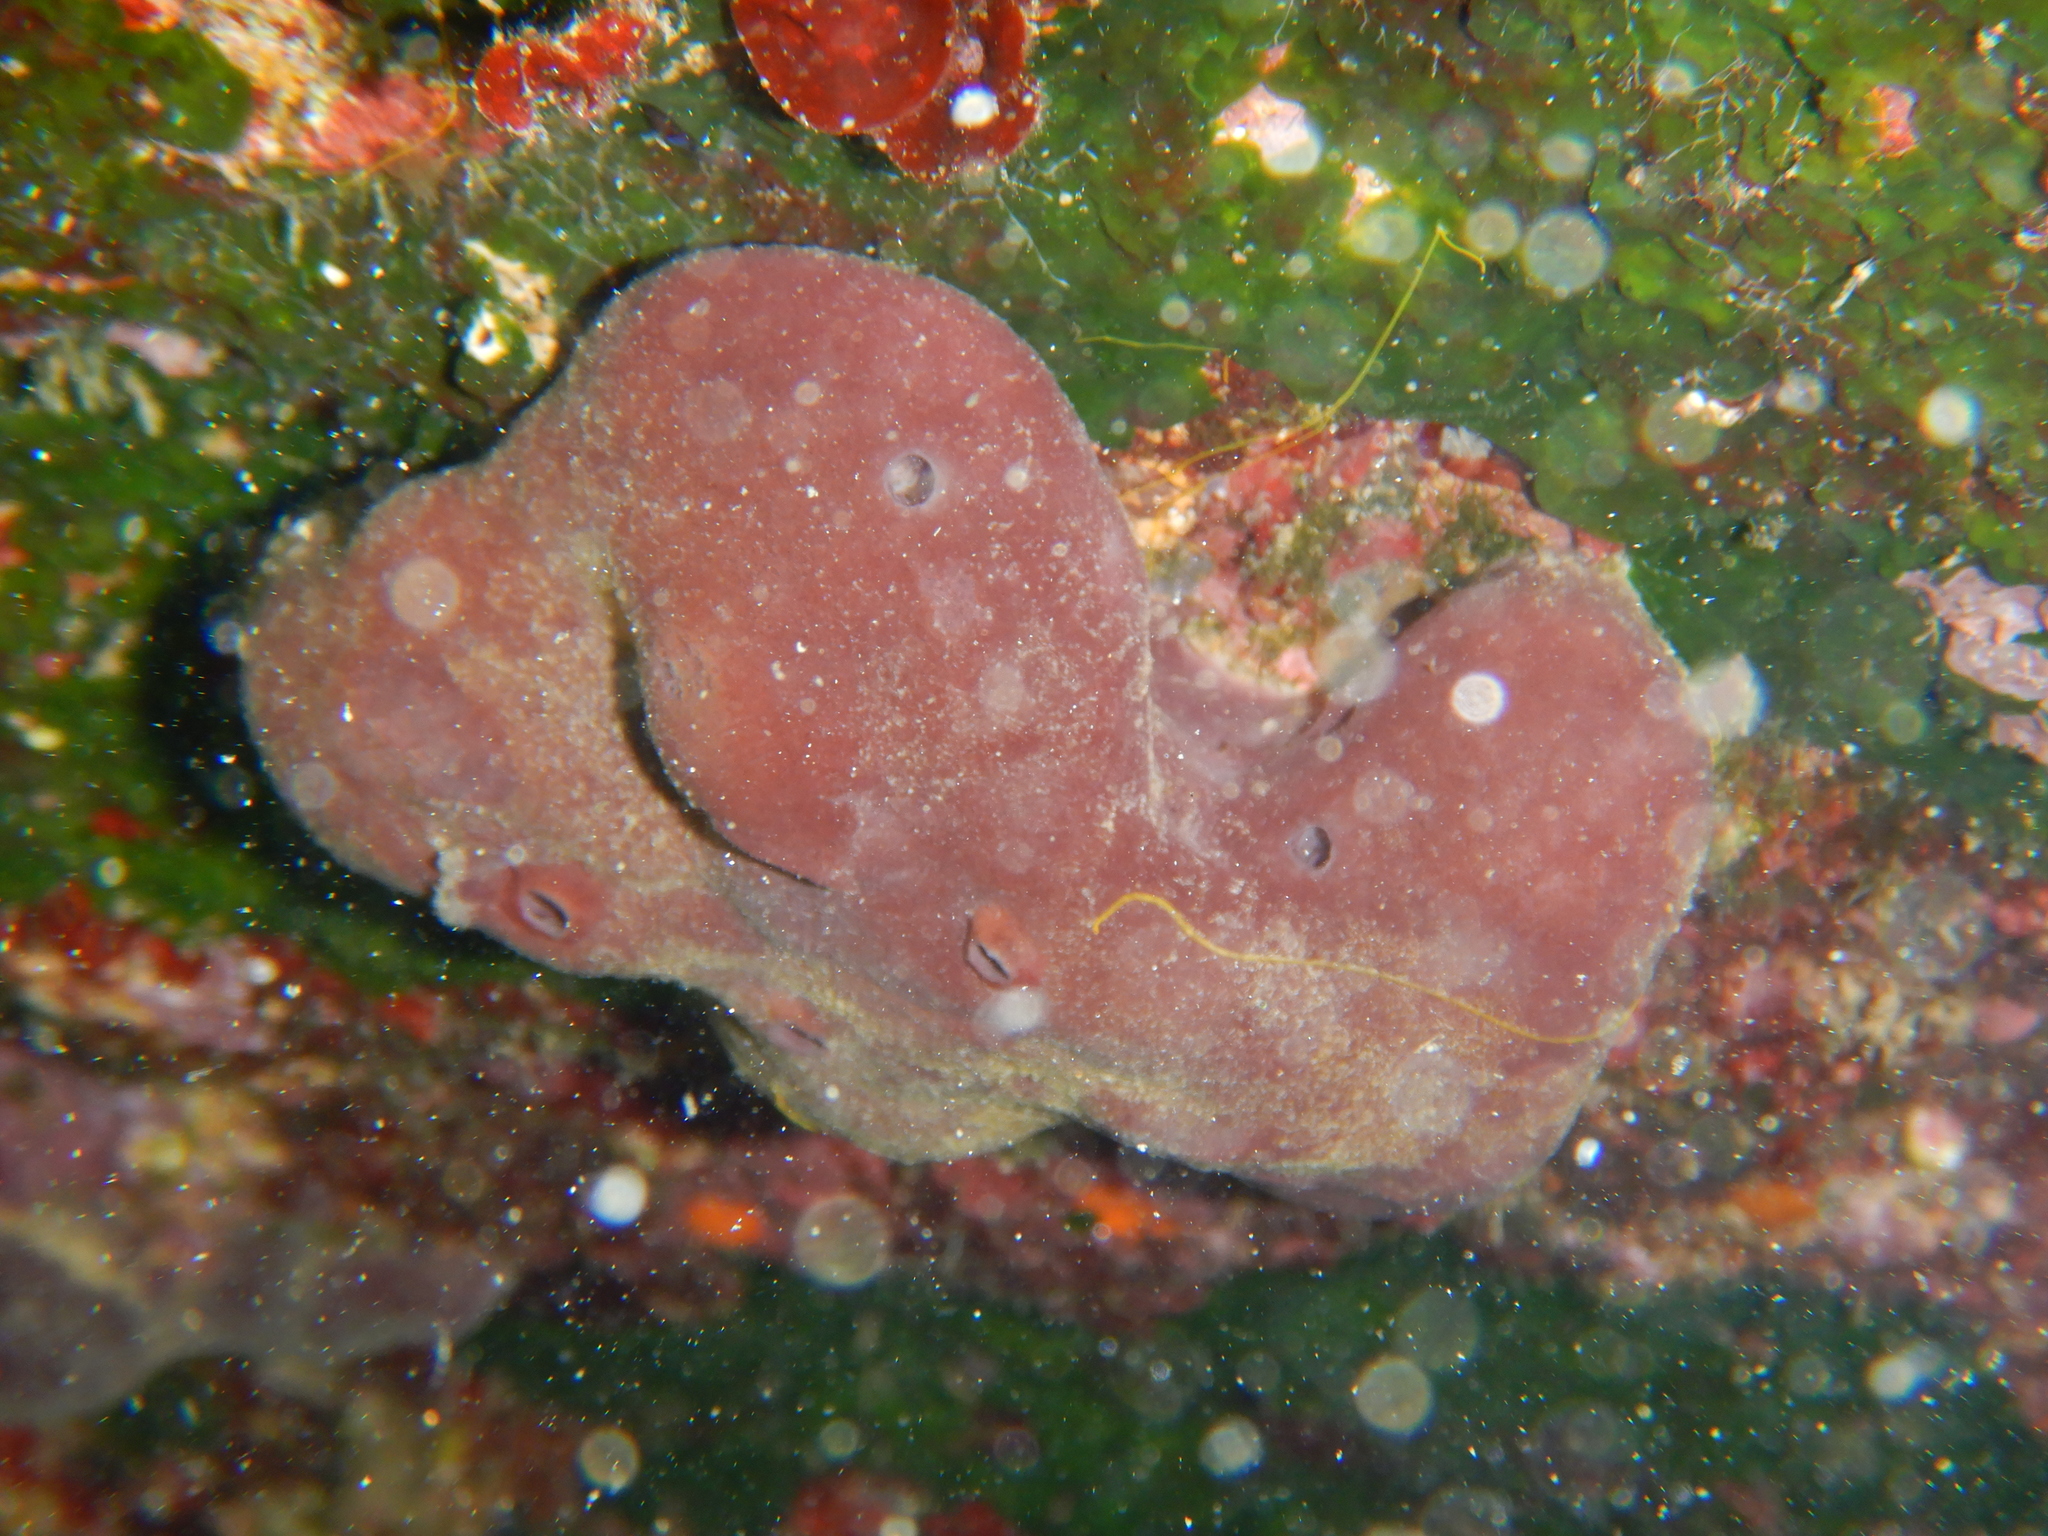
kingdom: Animalia
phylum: Porifera
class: Demospongiae
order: Haplosclerida
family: Petrosiidae
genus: Petrosia
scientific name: Petrosia ficiformis
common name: Stony sponge
